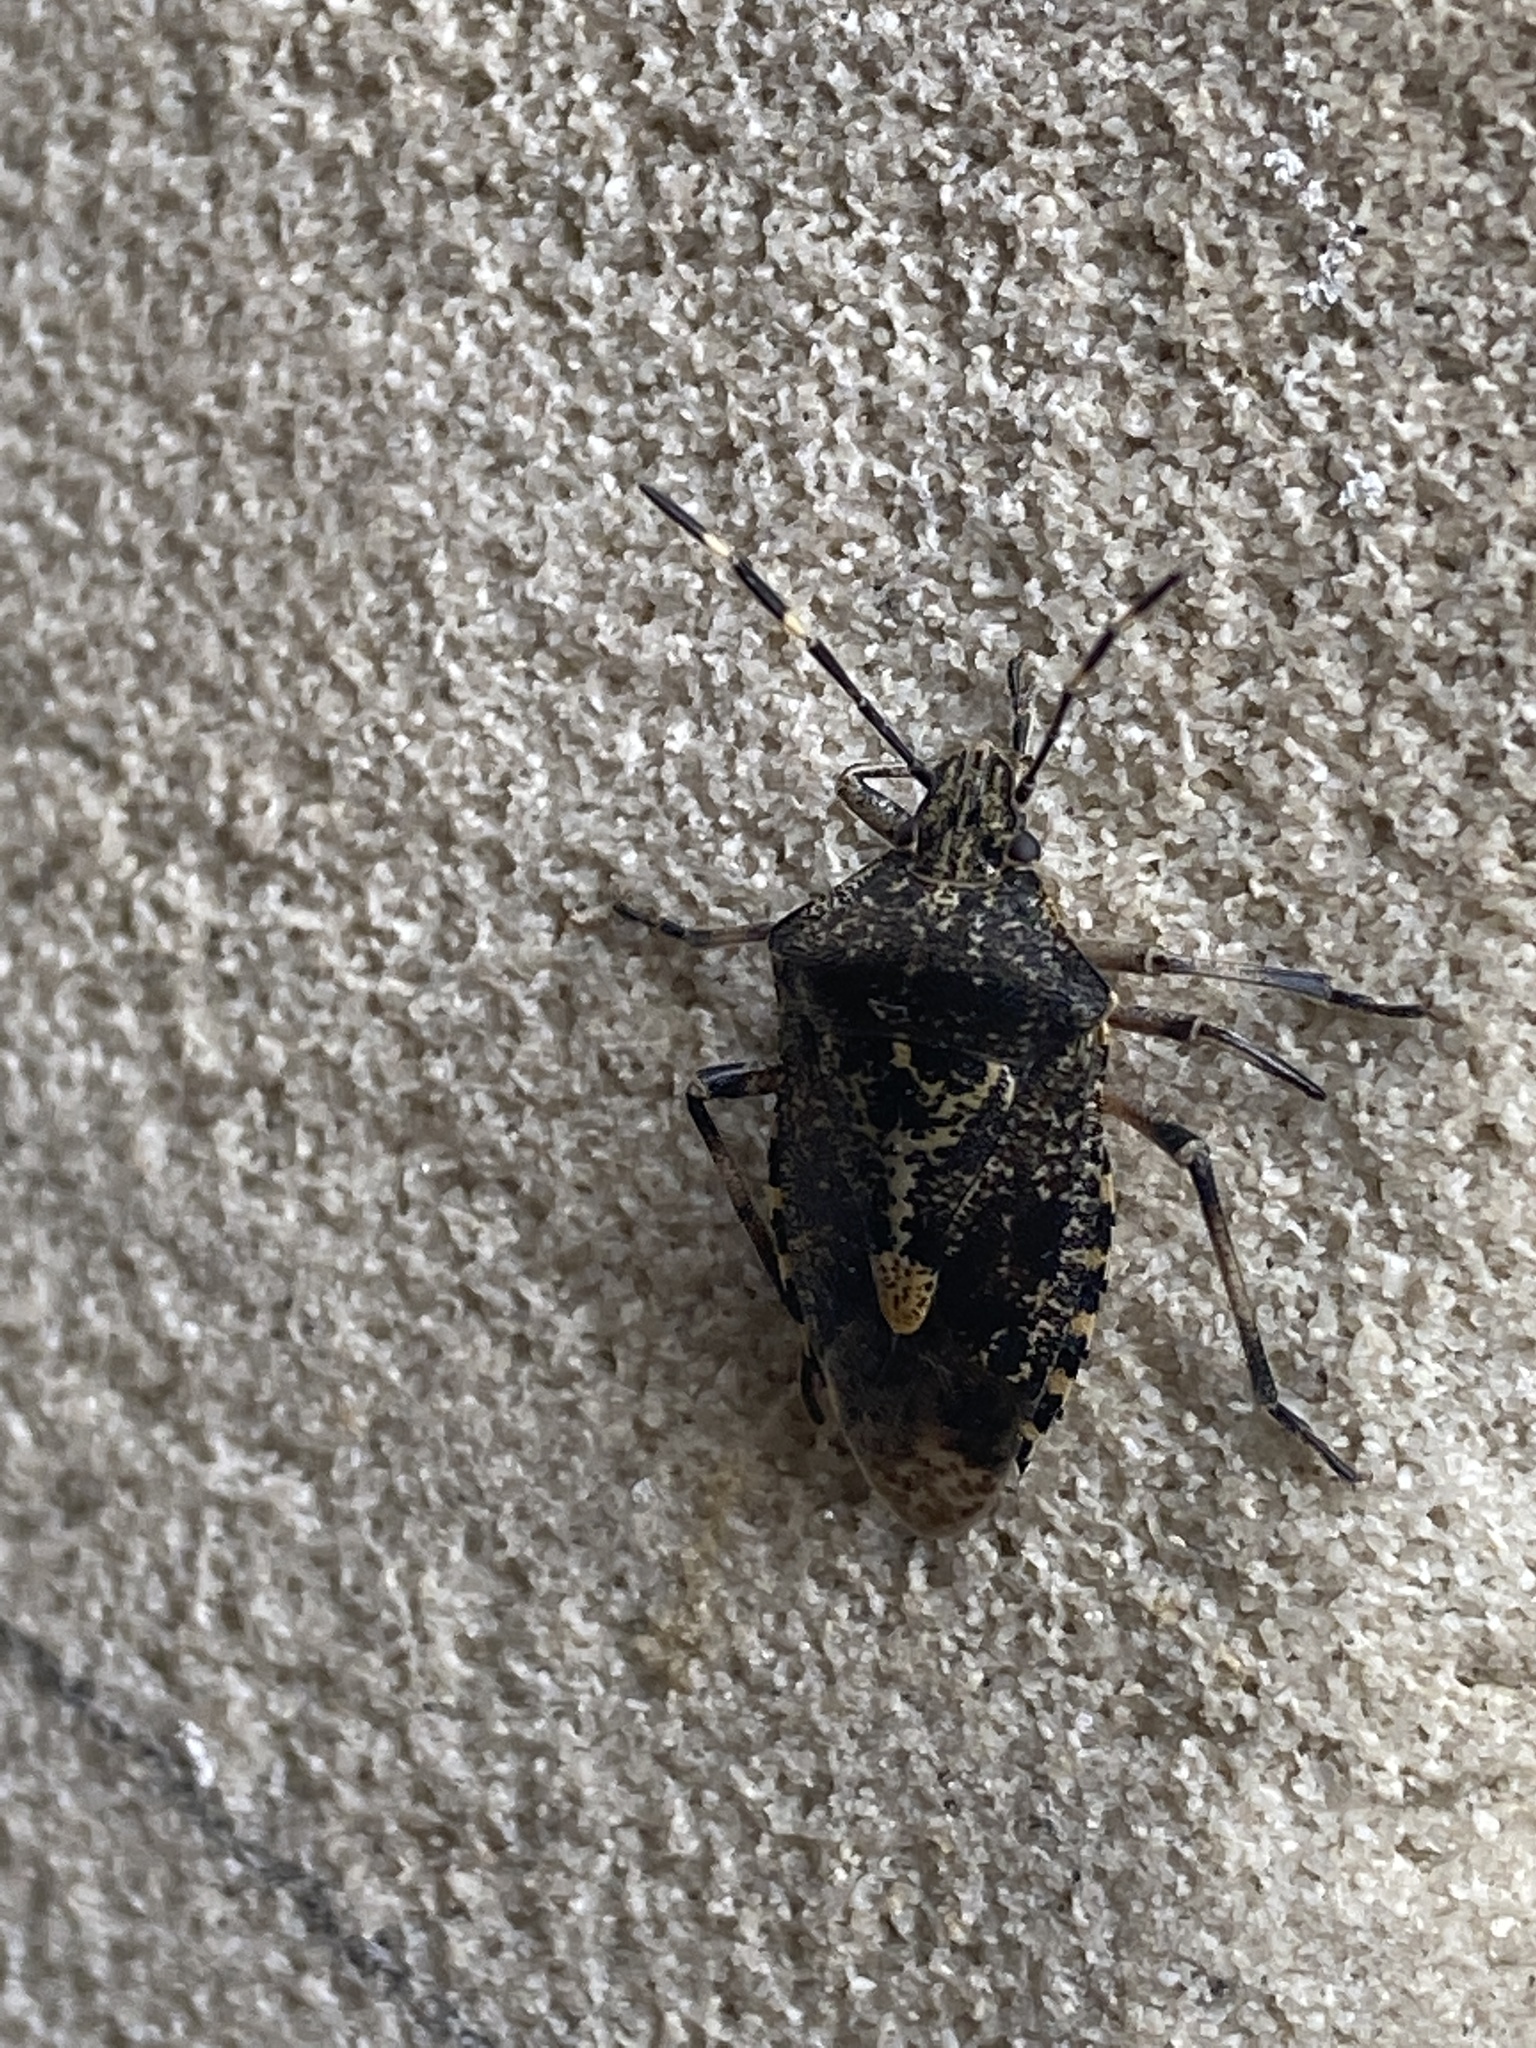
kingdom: Animalia
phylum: Arthropoda
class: Insecta
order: Hemiptera
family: Pentatomidae
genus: Rhaphigaster
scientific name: Rhaphigaster nebulosa
